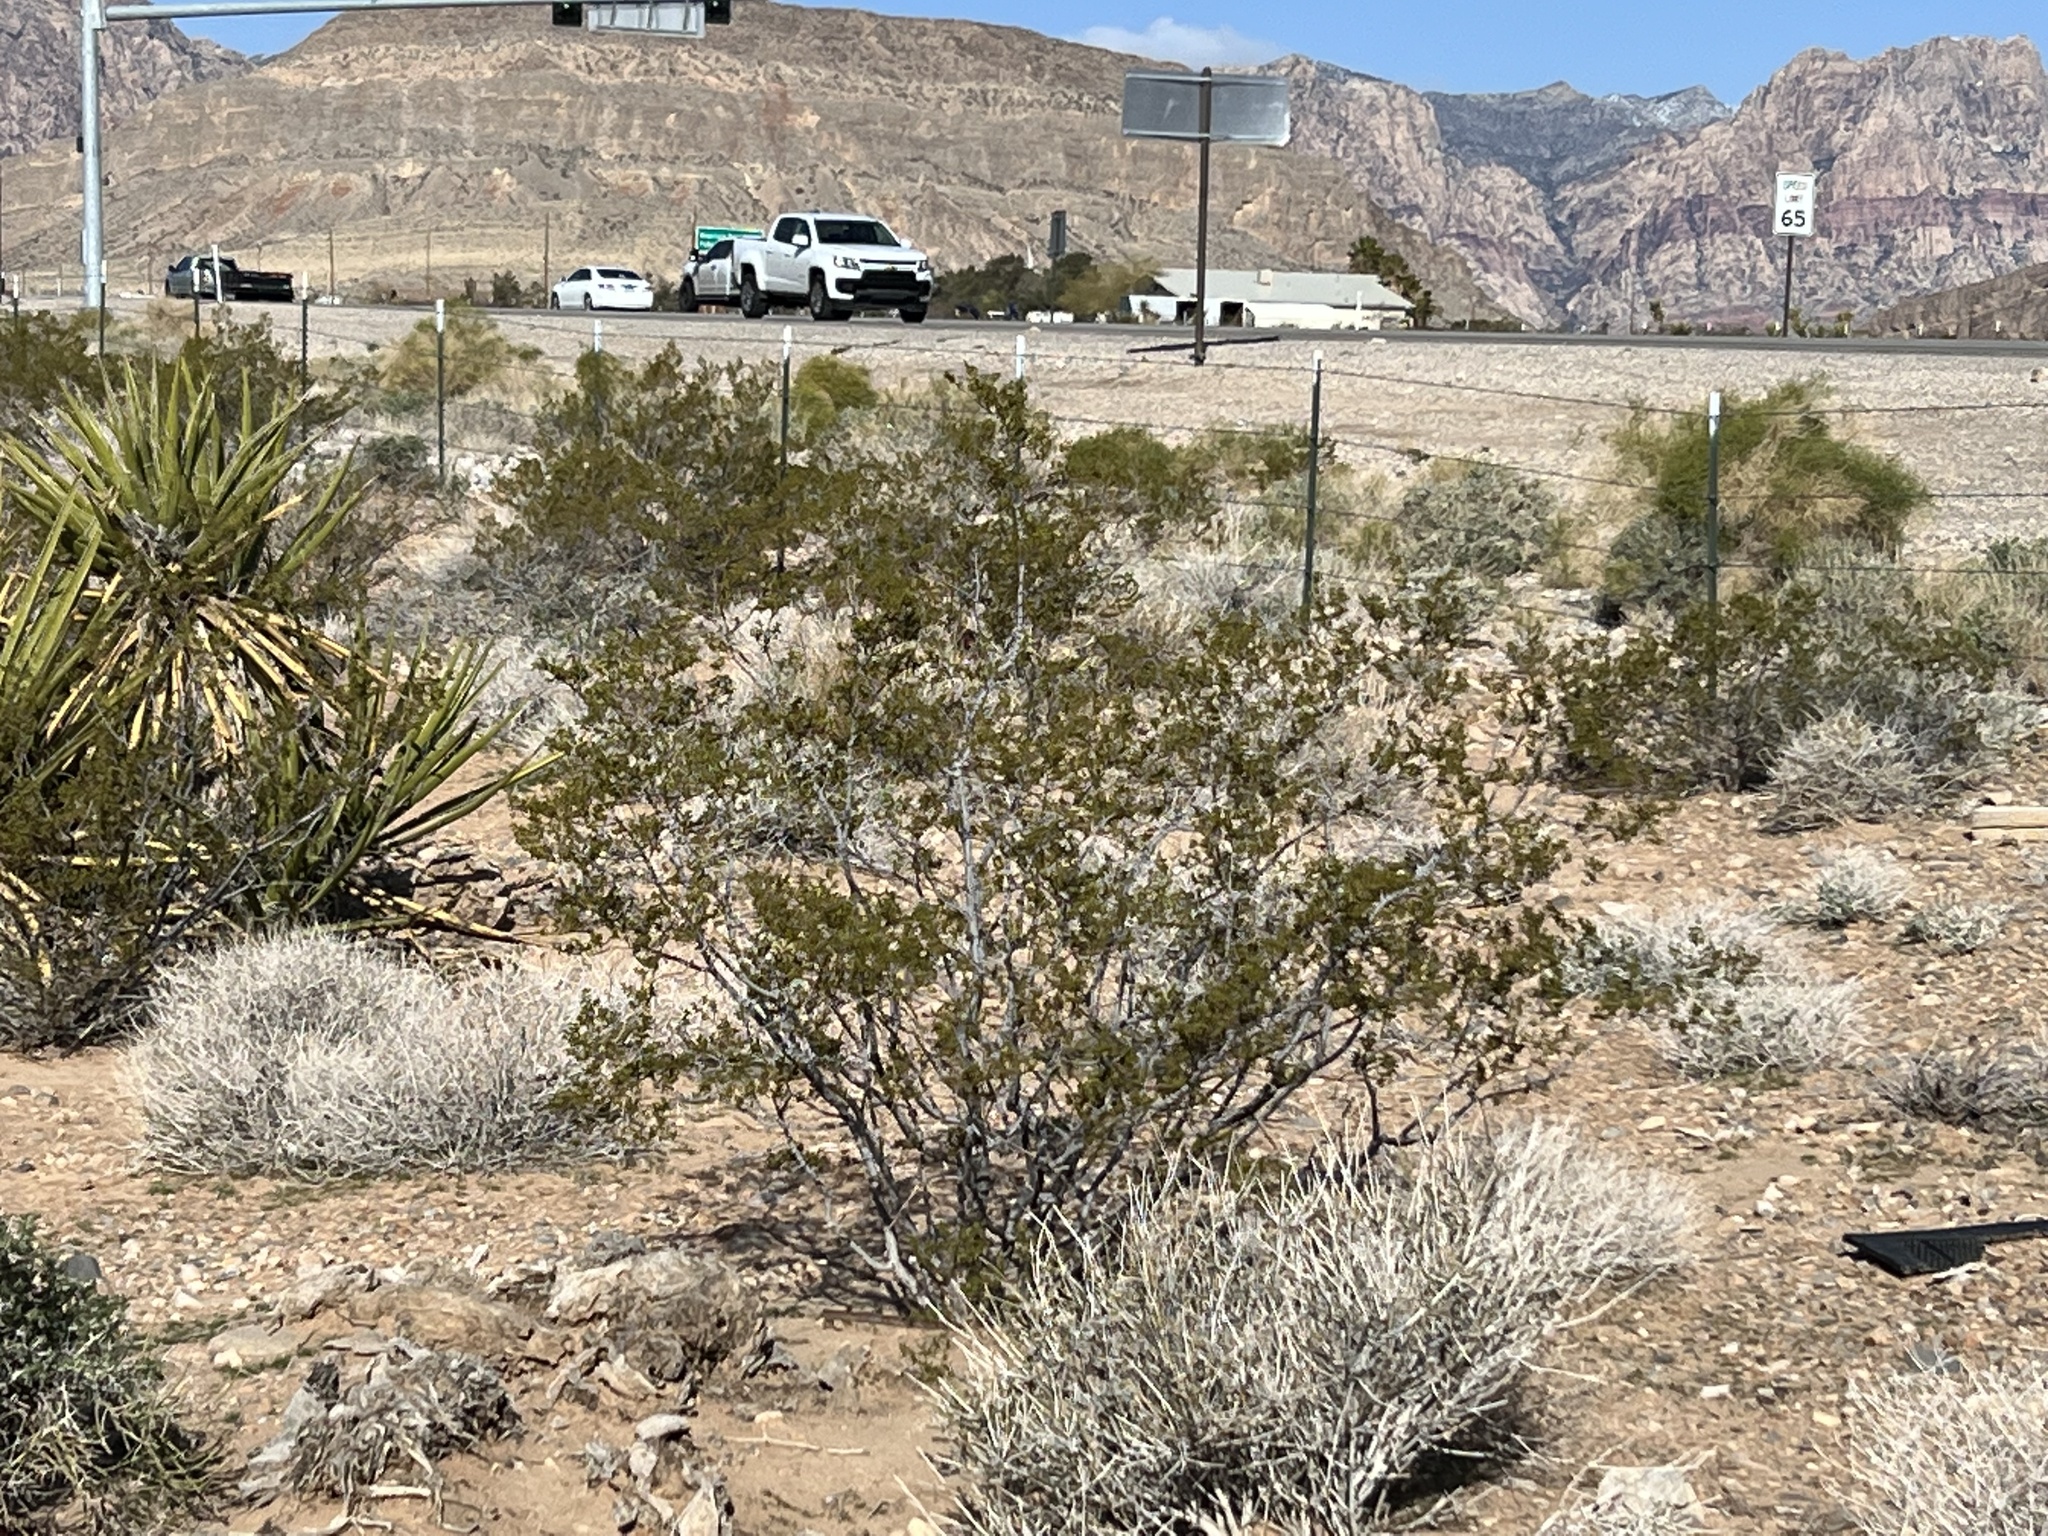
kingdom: Plantae
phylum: Tracheophyta
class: Magnoliopsida
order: Zygophyllales
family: Zygophyllaceae
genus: Larrea
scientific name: Larrea tridentata
